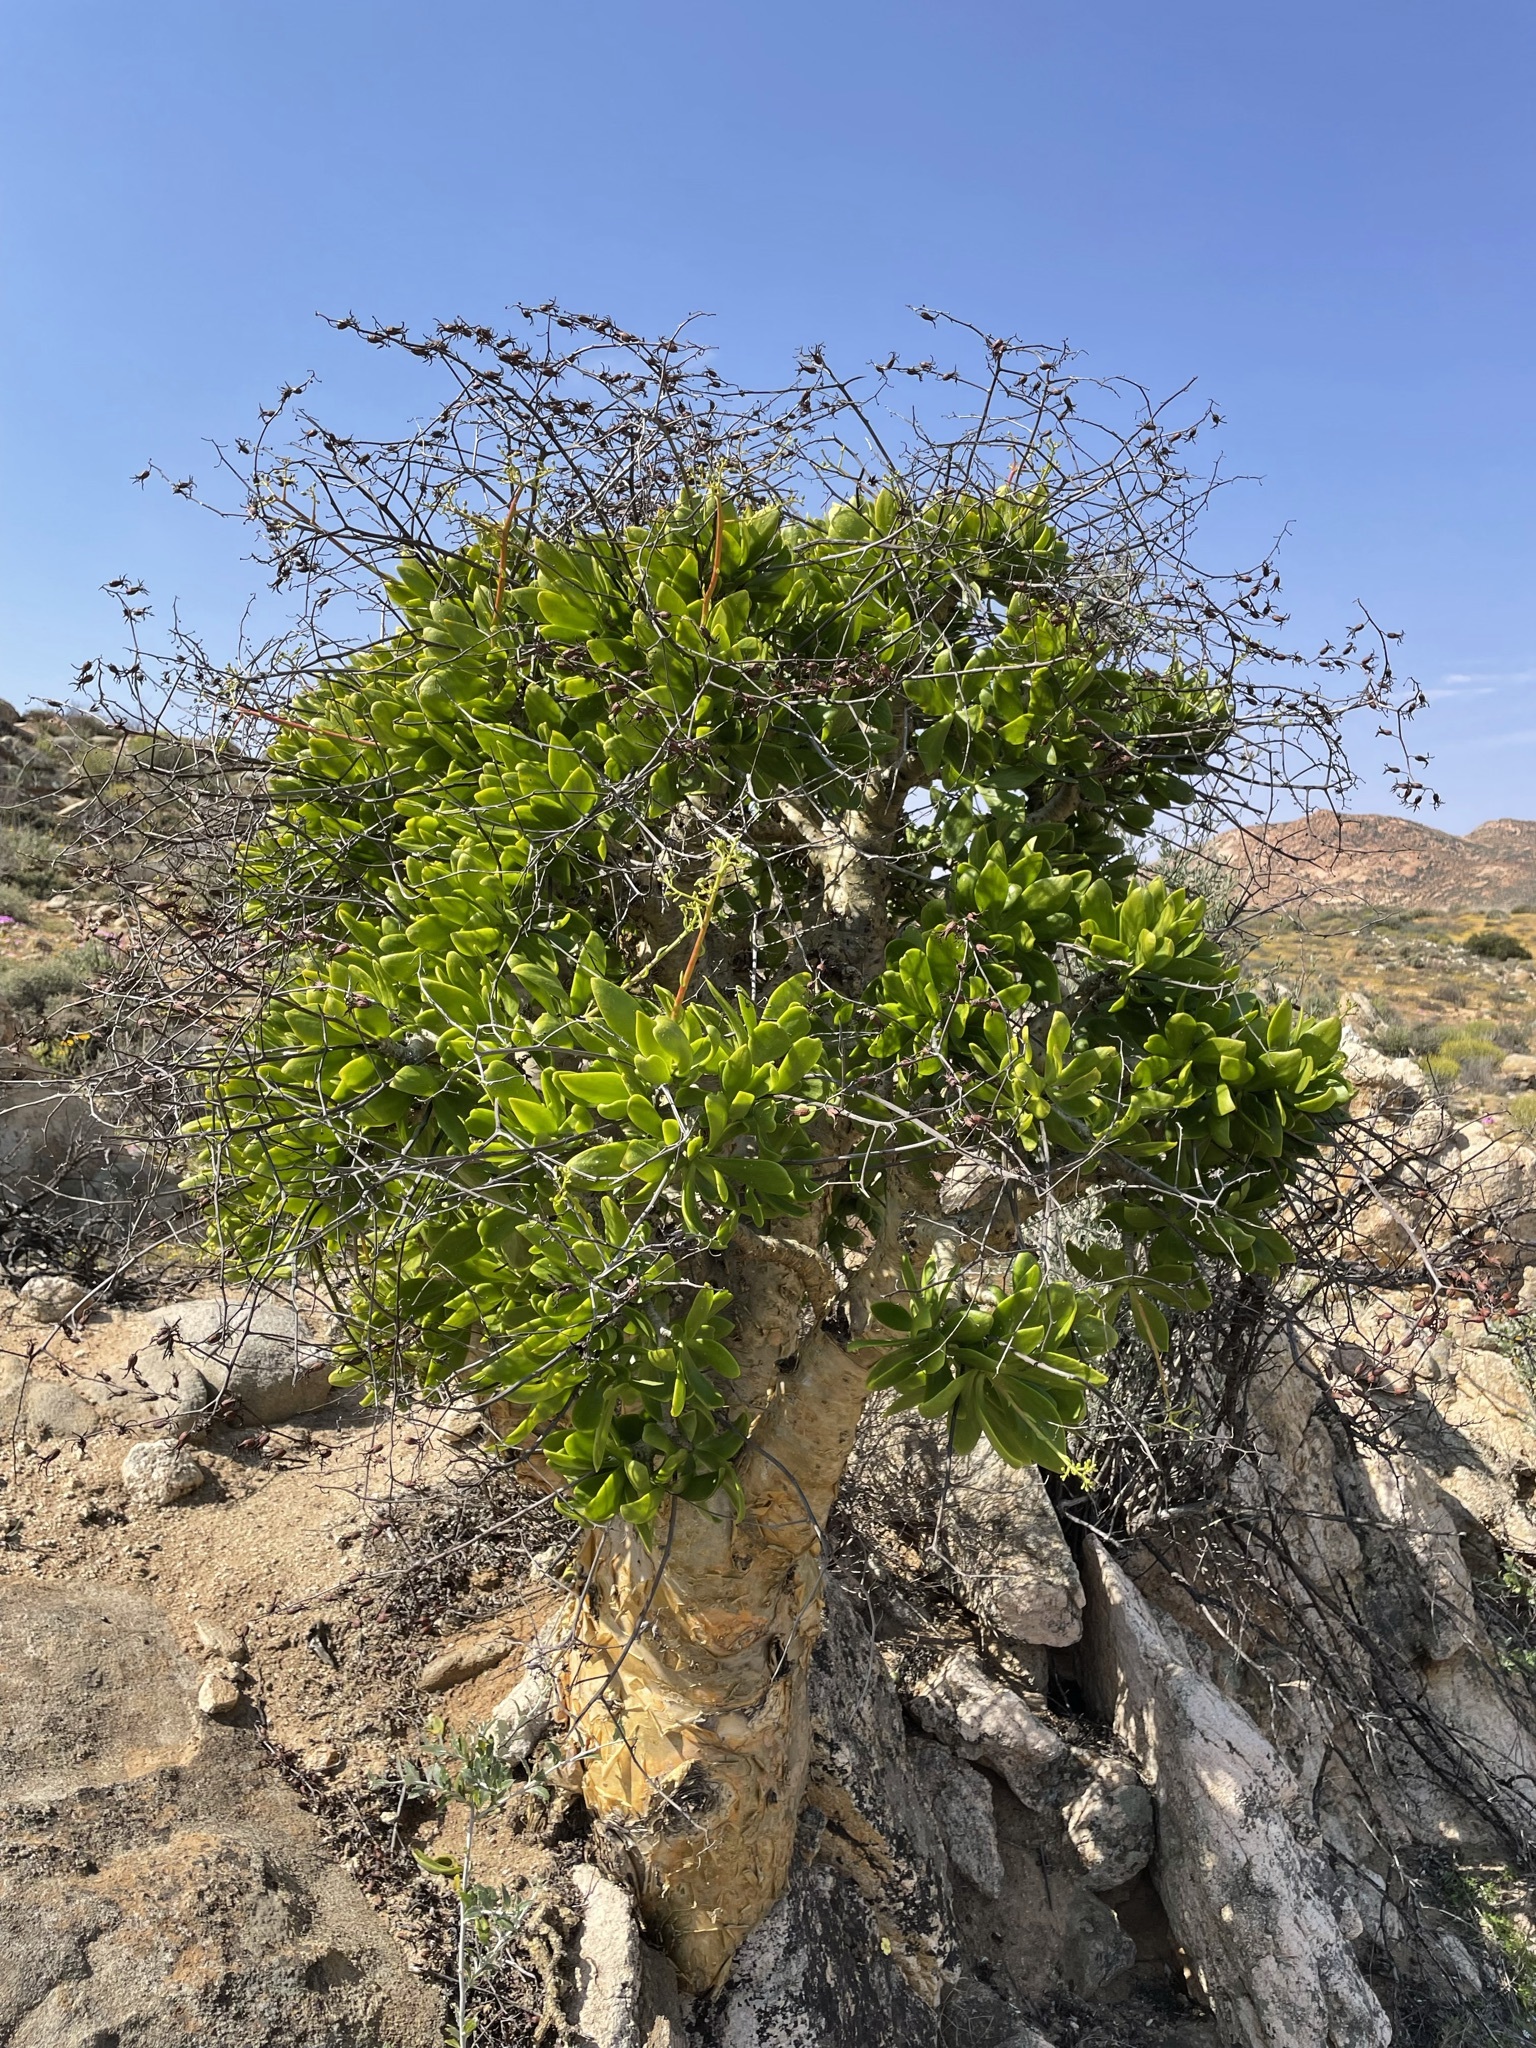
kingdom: Plantae
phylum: Tracheophyta
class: Magnoliopsida
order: Saxifragales
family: Crassulaceae
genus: Tylecodon
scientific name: Tylecodon paniculatus
